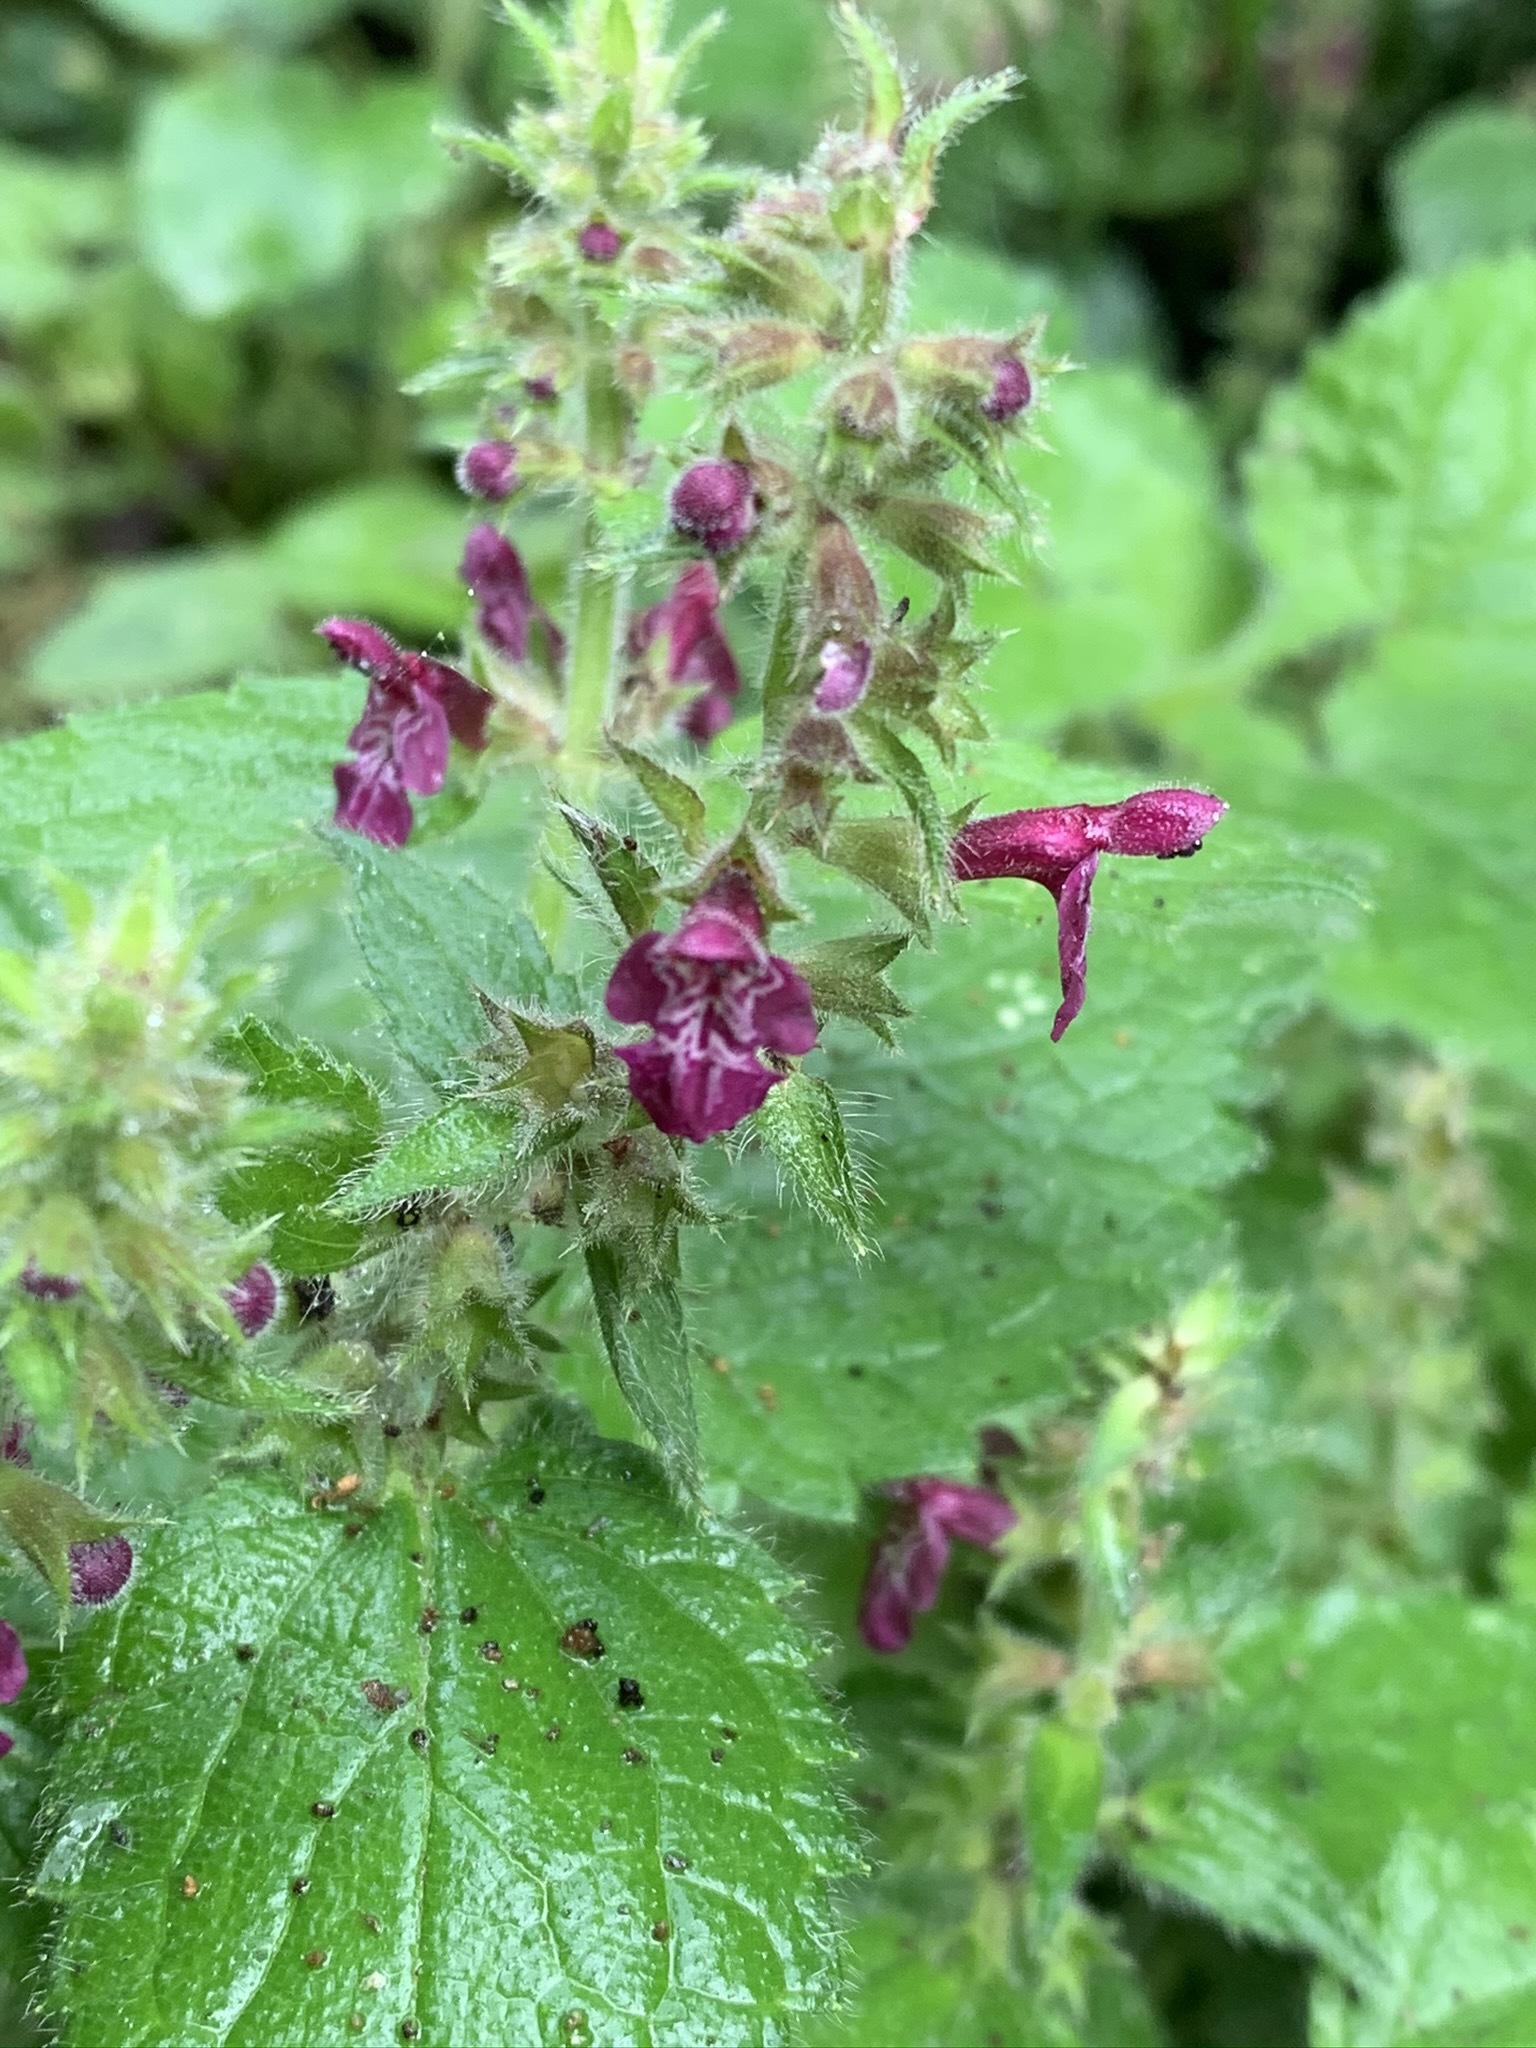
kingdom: Plantae
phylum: Tracheophyta
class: Magnoliopsida
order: Lamiales
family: Lamiaceae
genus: Stachys
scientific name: Stachys sylvatica
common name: Hedge woundwort
